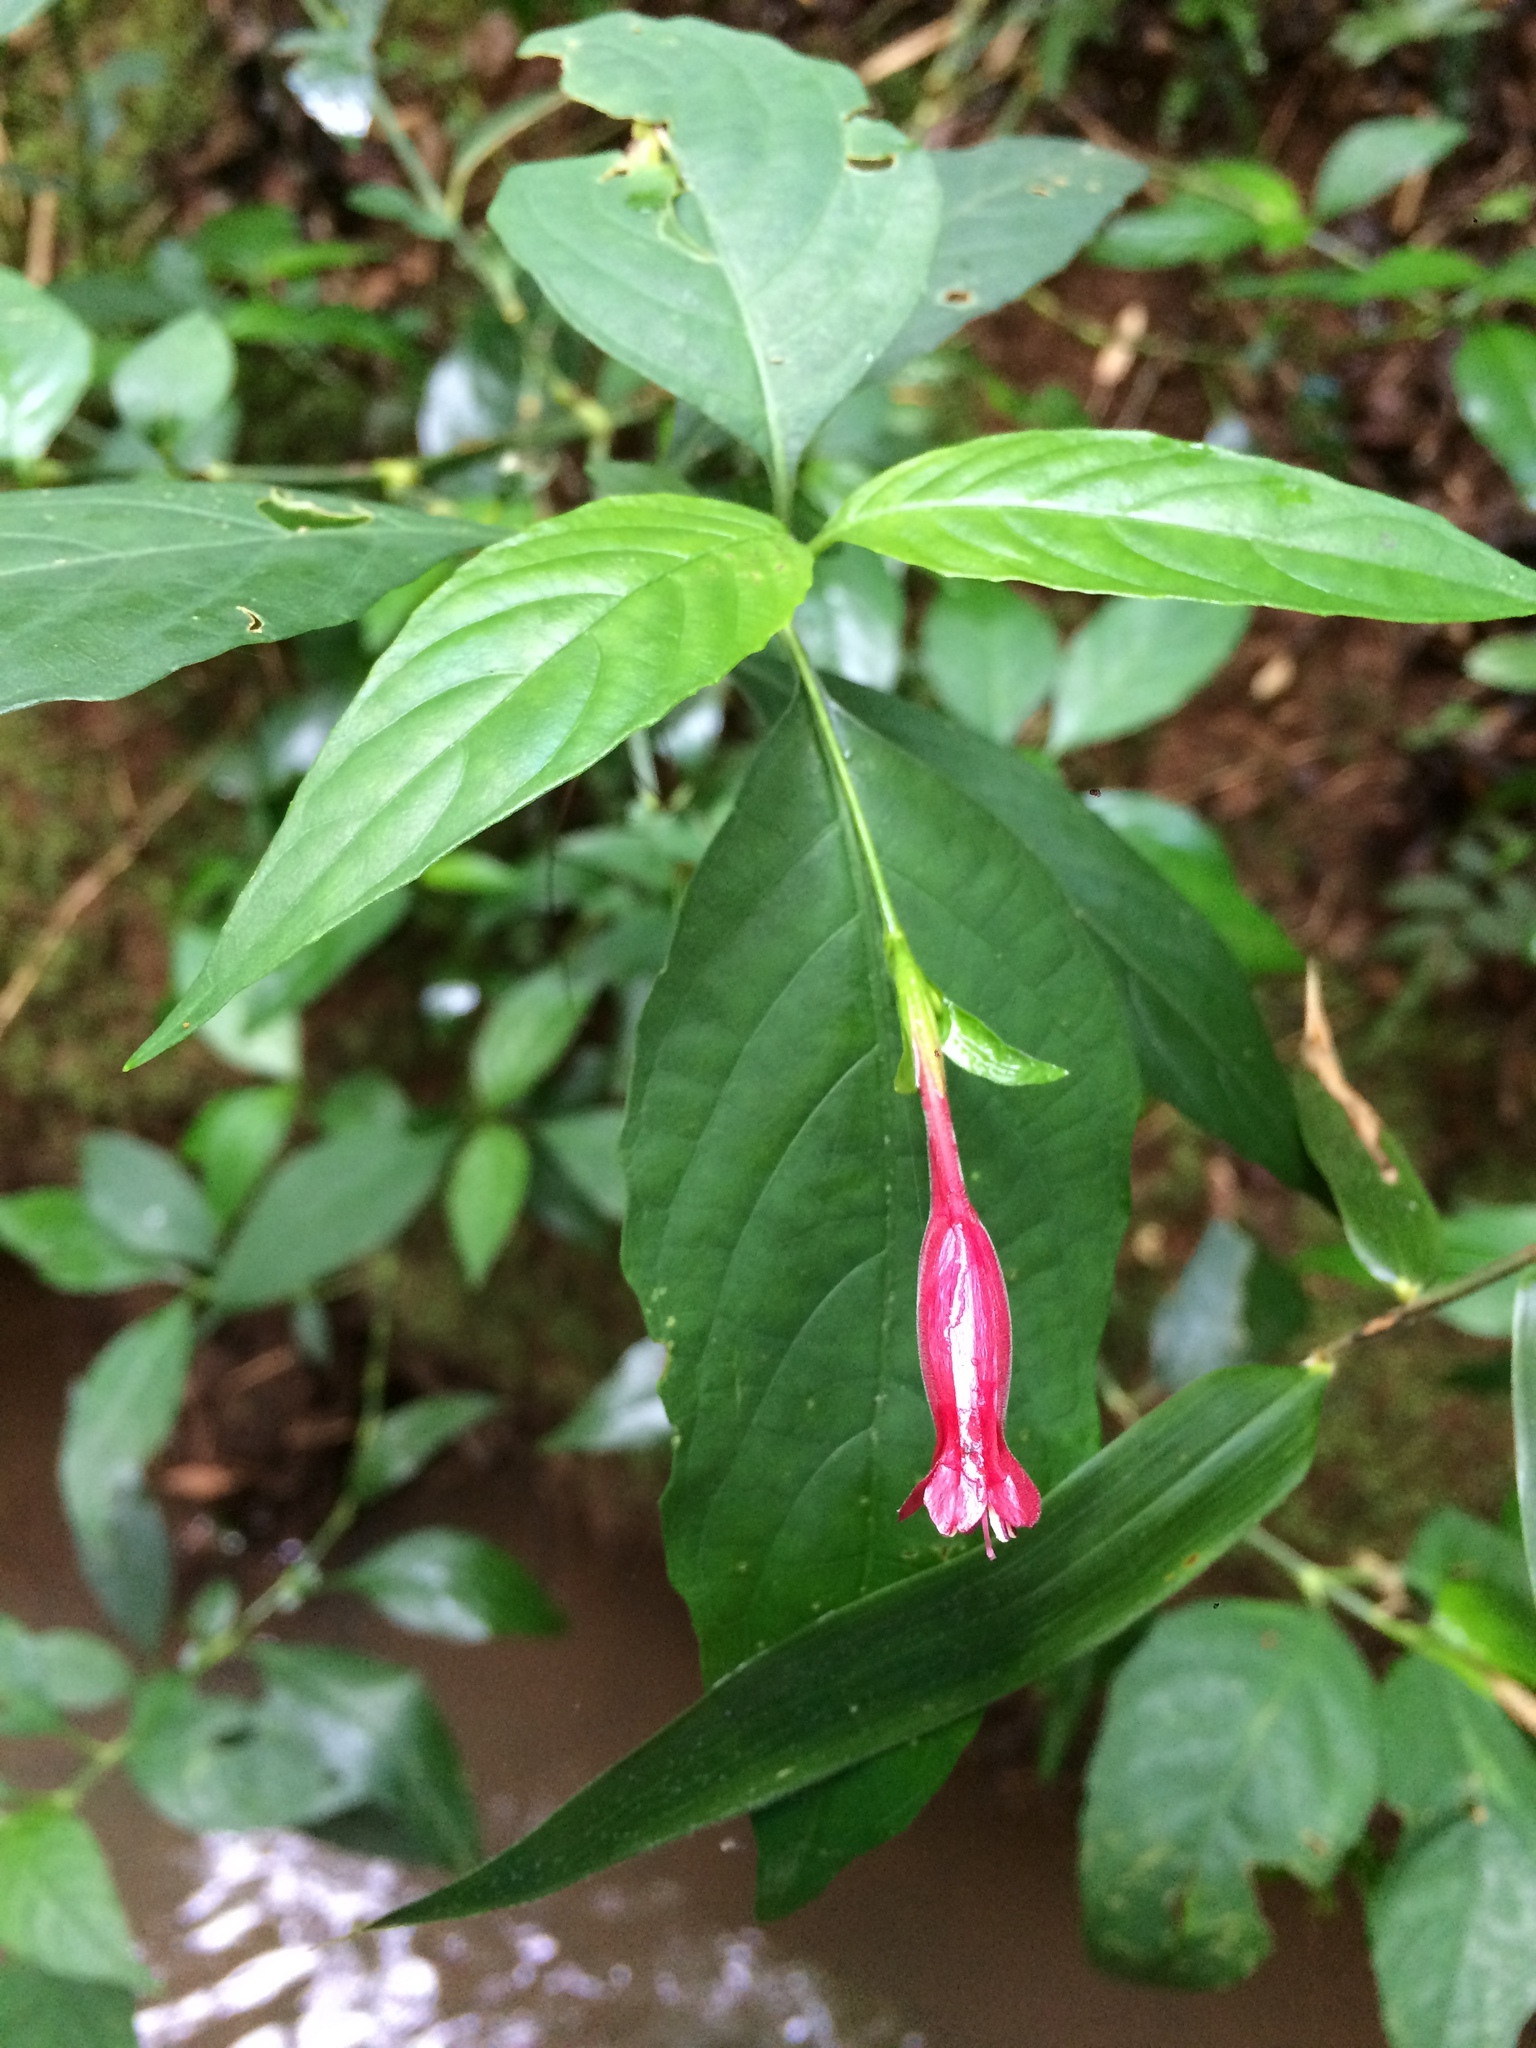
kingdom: Plantae
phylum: Tracheophyta
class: Magnoliopsida
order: Lamiales
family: Acanthaceae
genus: Ruellia
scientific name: Ruellia angustiflora
